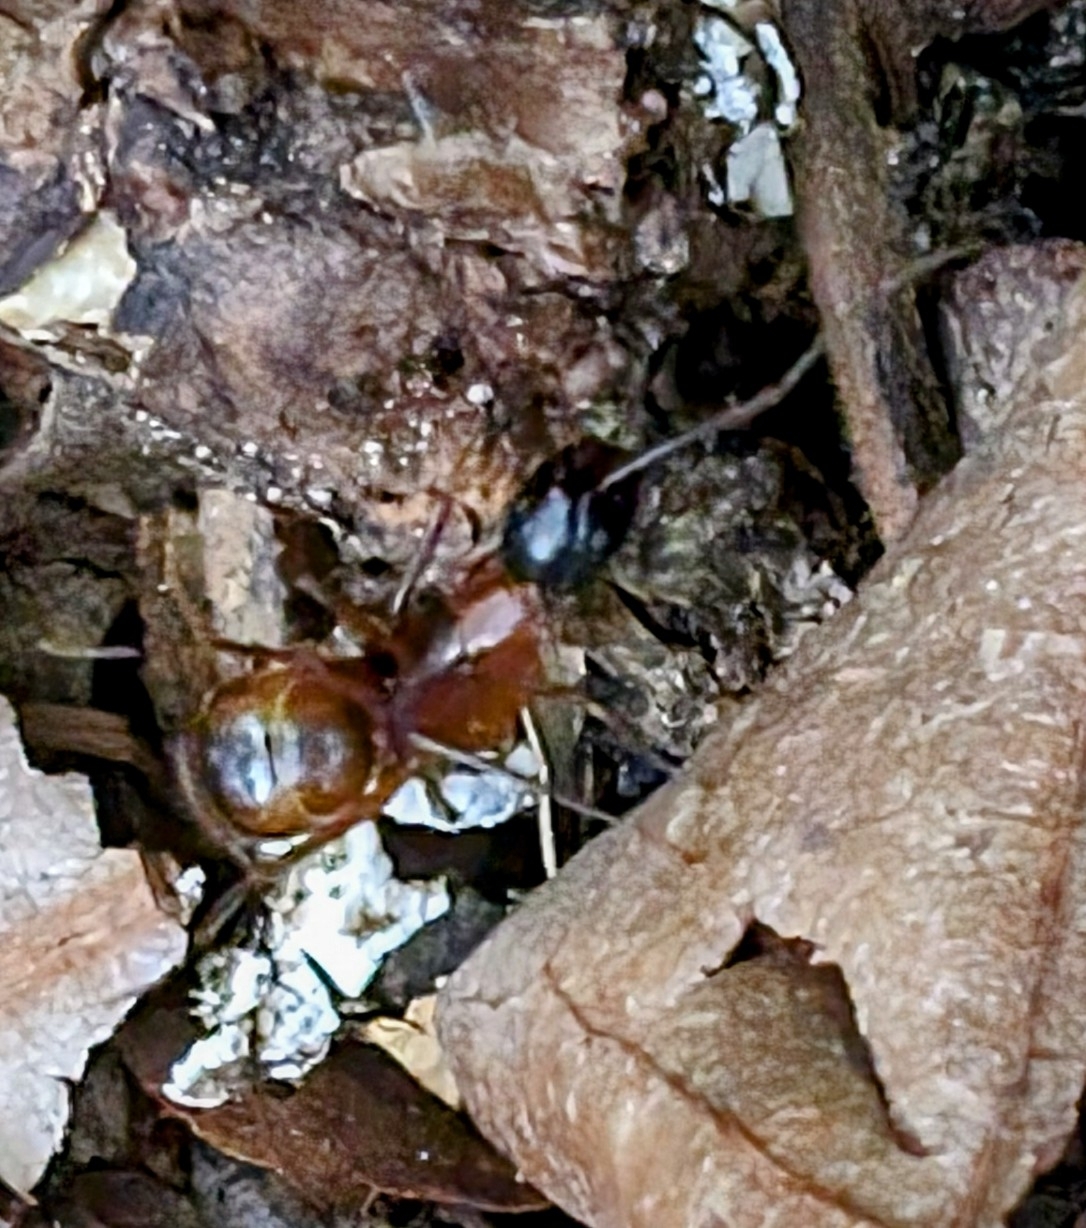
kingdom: Animalia
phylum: Arthropoda
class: Insecta
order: Hymenoptera
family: Formicidae
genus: Camponotus
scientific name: Camponotus americanus
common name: American carpenter ant
